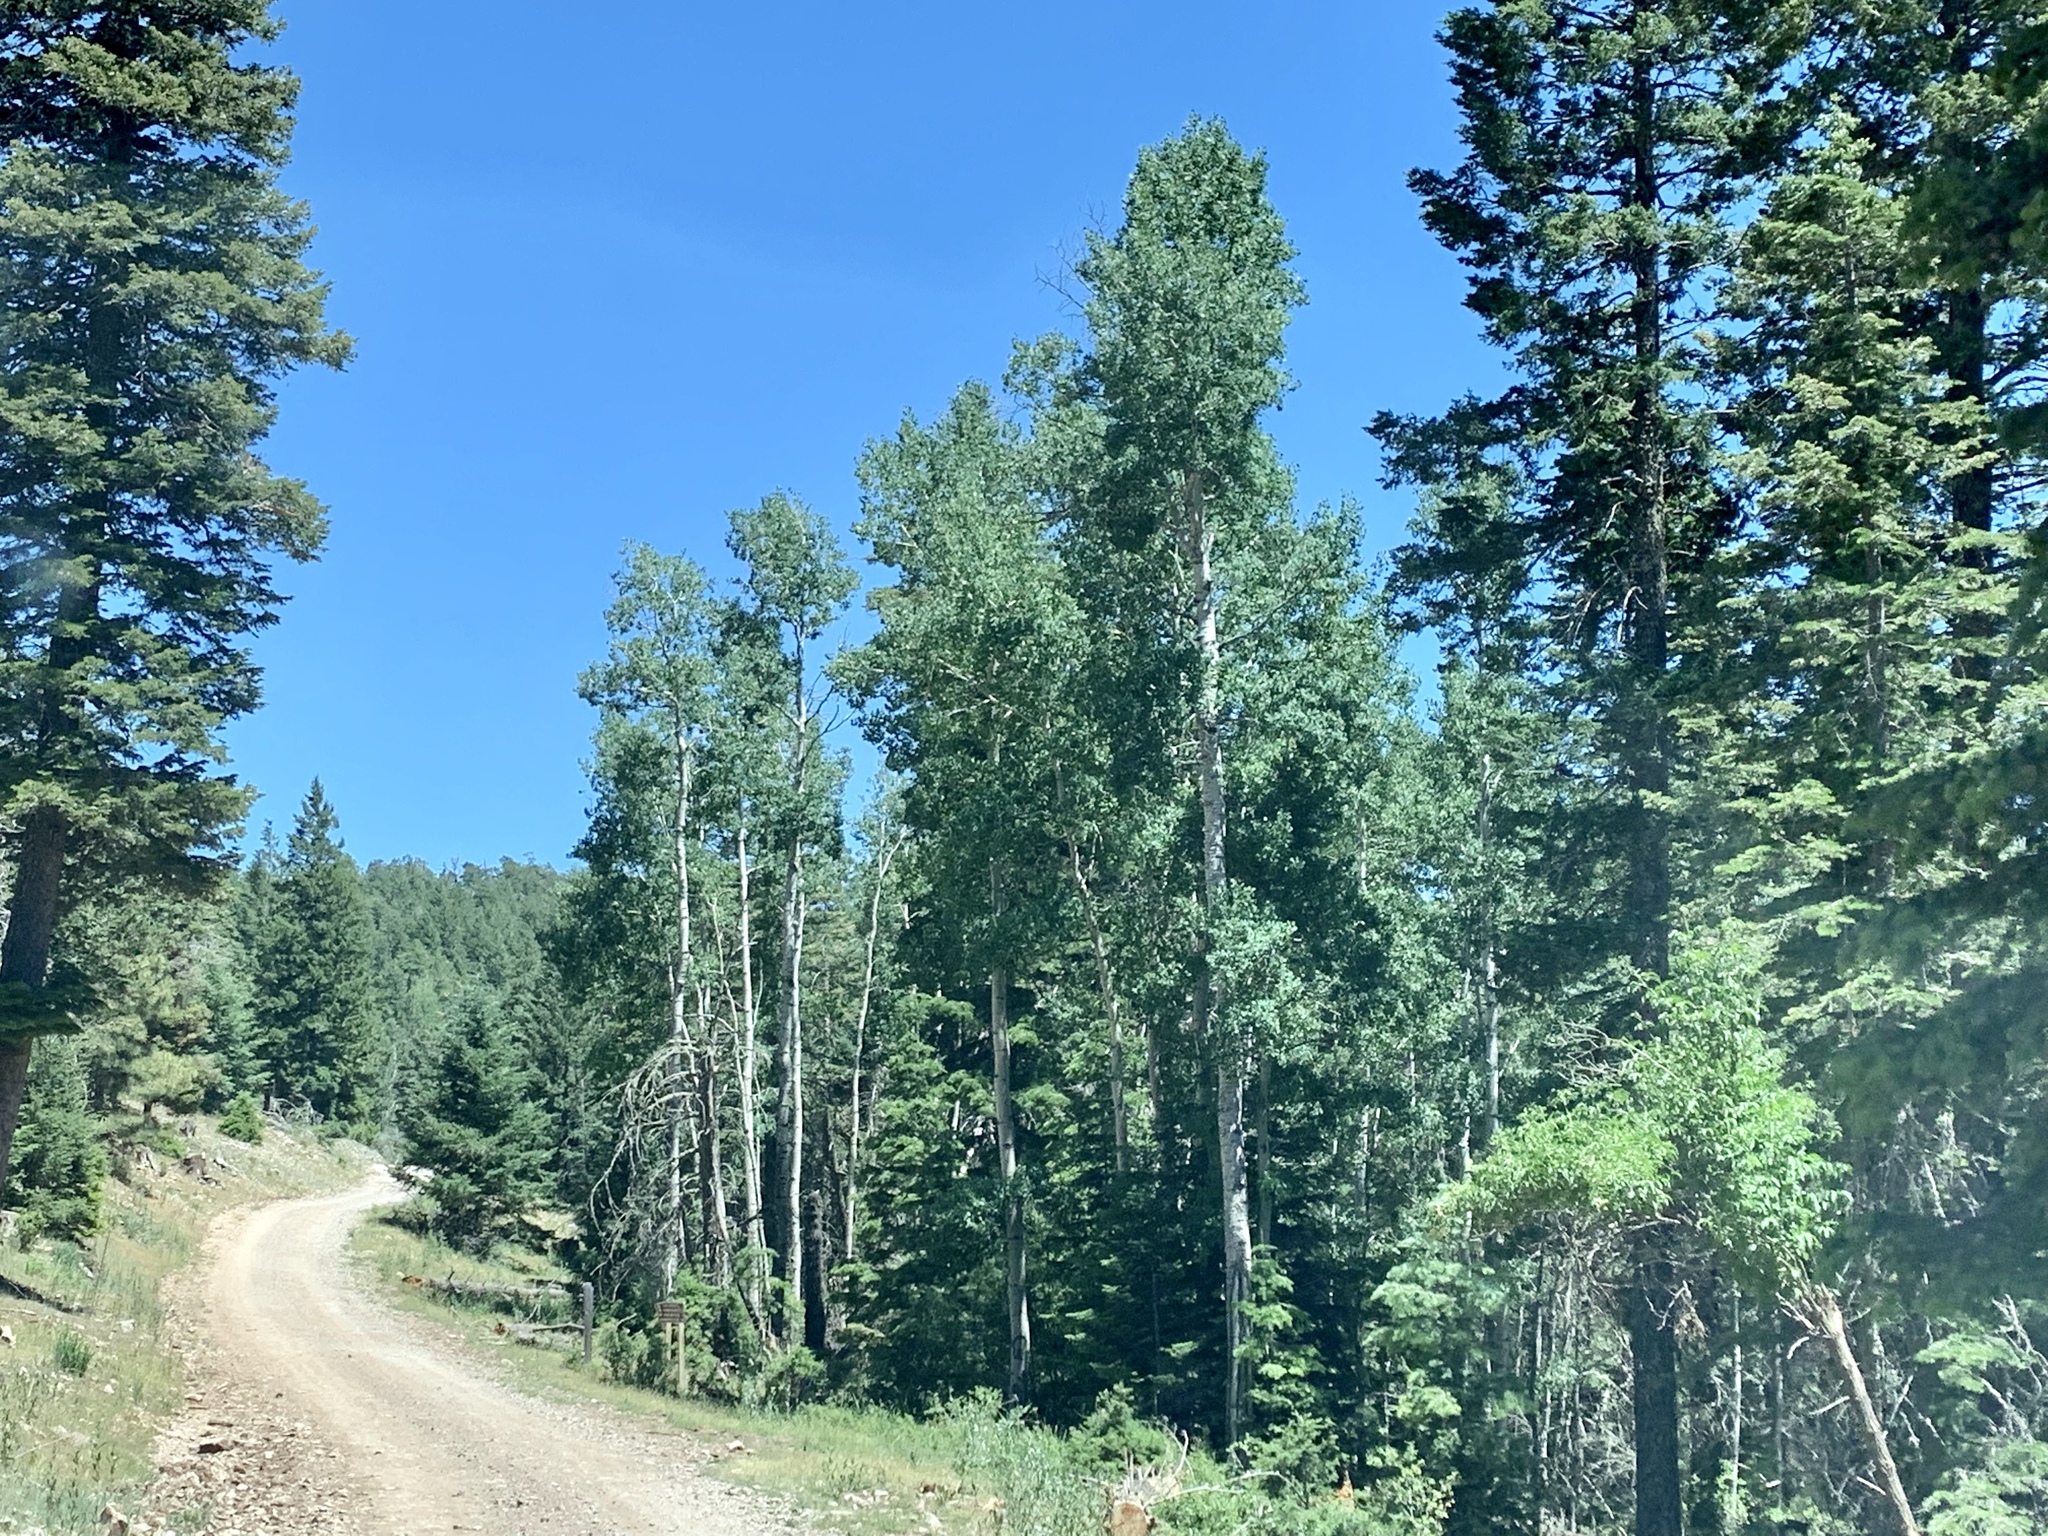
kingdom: Plantae
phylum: Tracheophyta
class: Magnoliopsida
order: Malpighiales
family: Salicaceae
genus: Populus
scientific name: Populus tremuloides
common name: Quaking aspen
